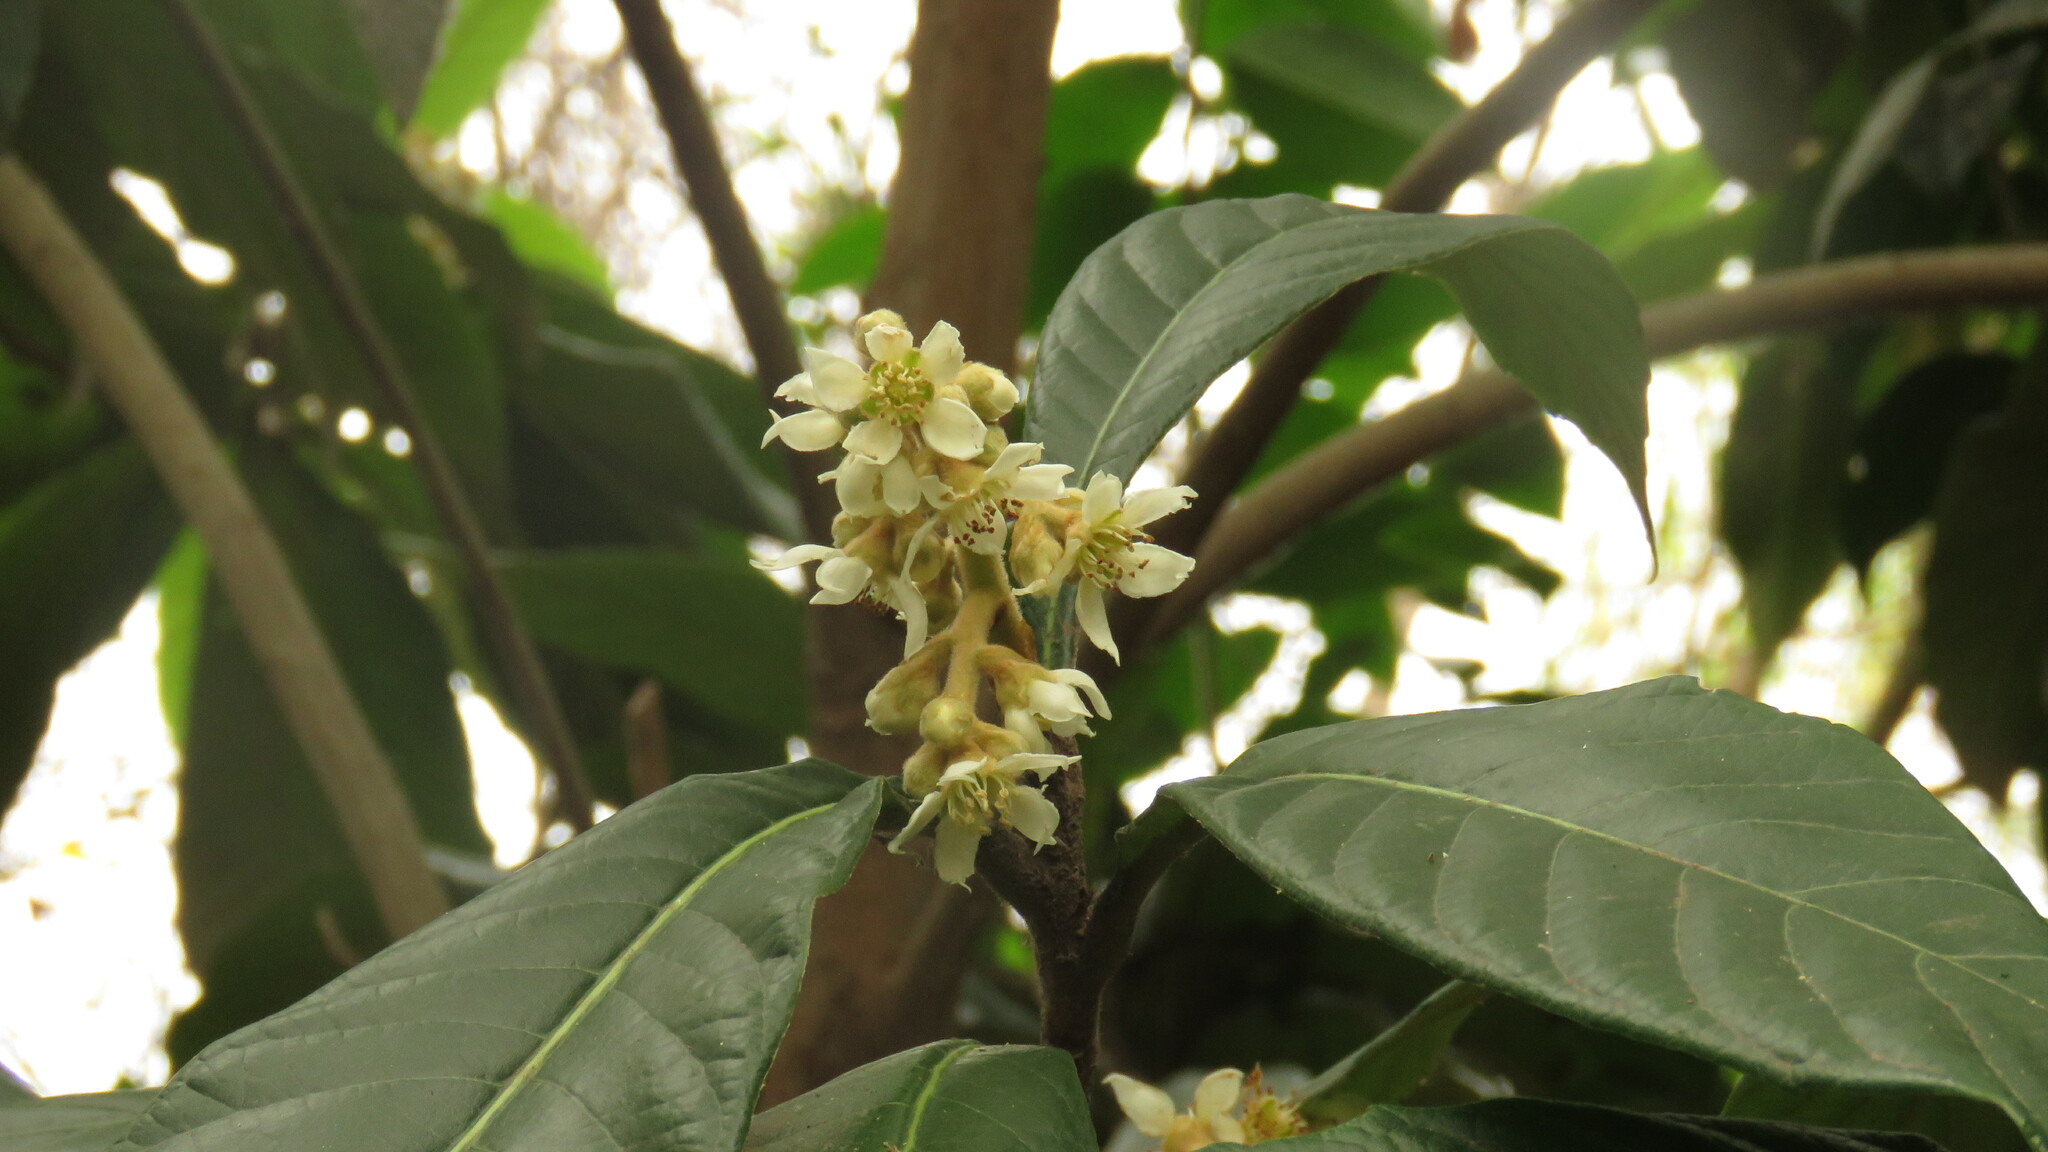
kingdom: Plantae
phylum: Tracheophyta
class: Magnoliopsida
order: Rosales
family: Rosaceae
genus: Rhaphiolepis
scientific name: Rhaphiolepis bibas
